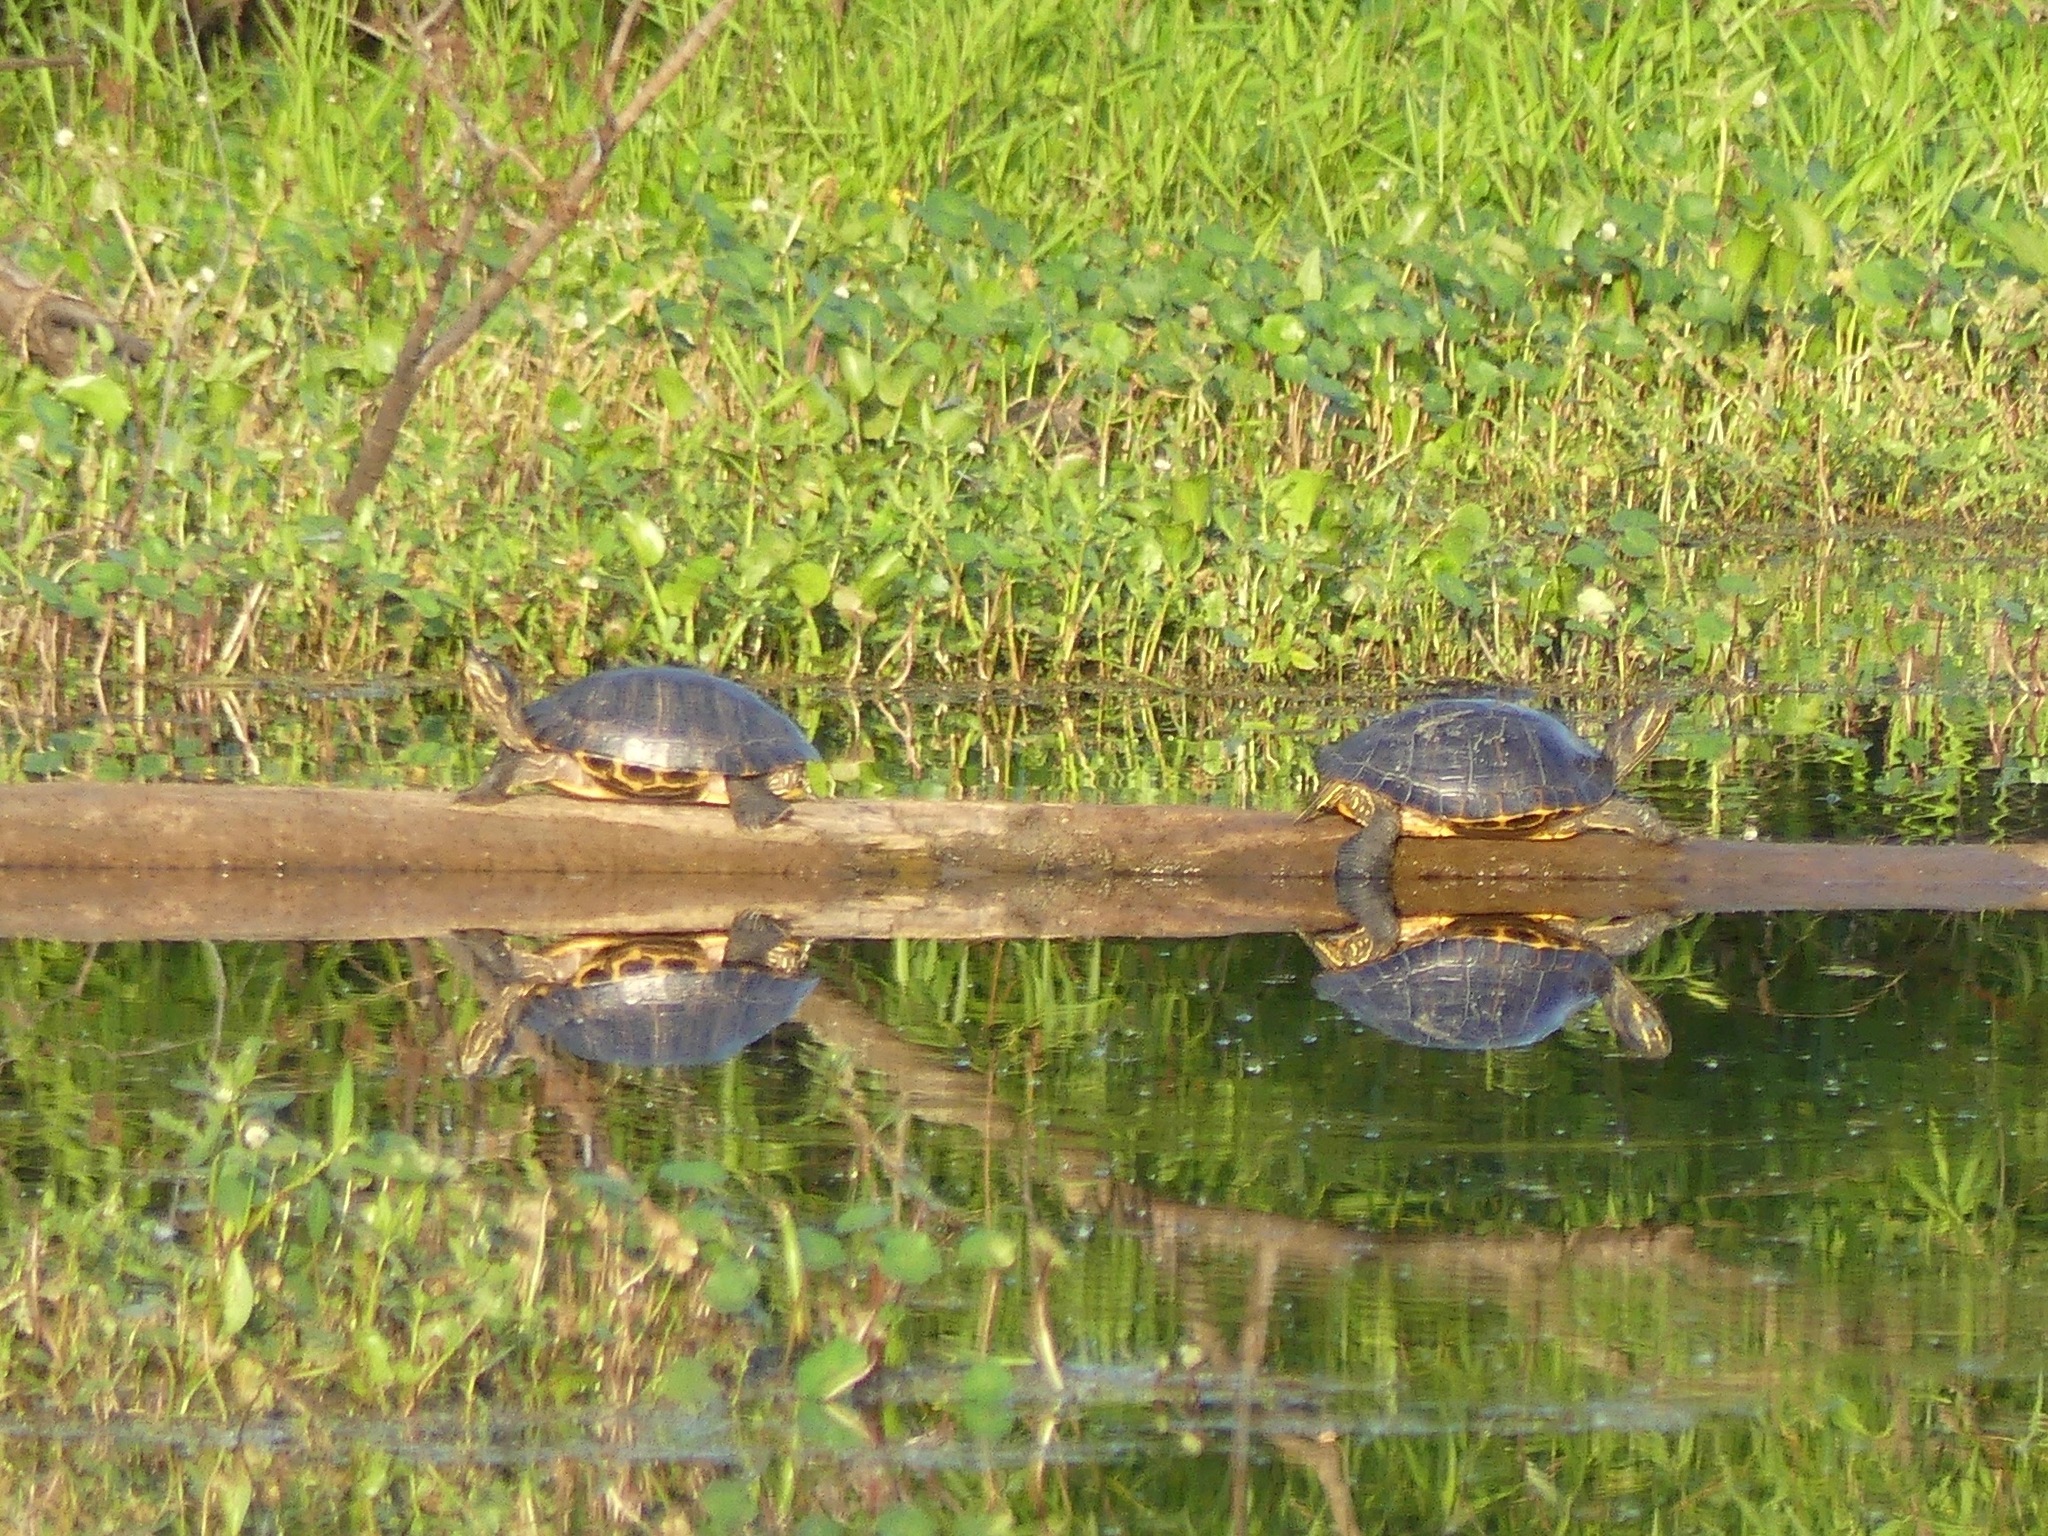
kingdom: Animalia
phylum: Chordata
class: Testudines
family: Emydidae
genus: Pseudemys
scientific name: Pseudemys concinna
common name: Eastern river cooter
